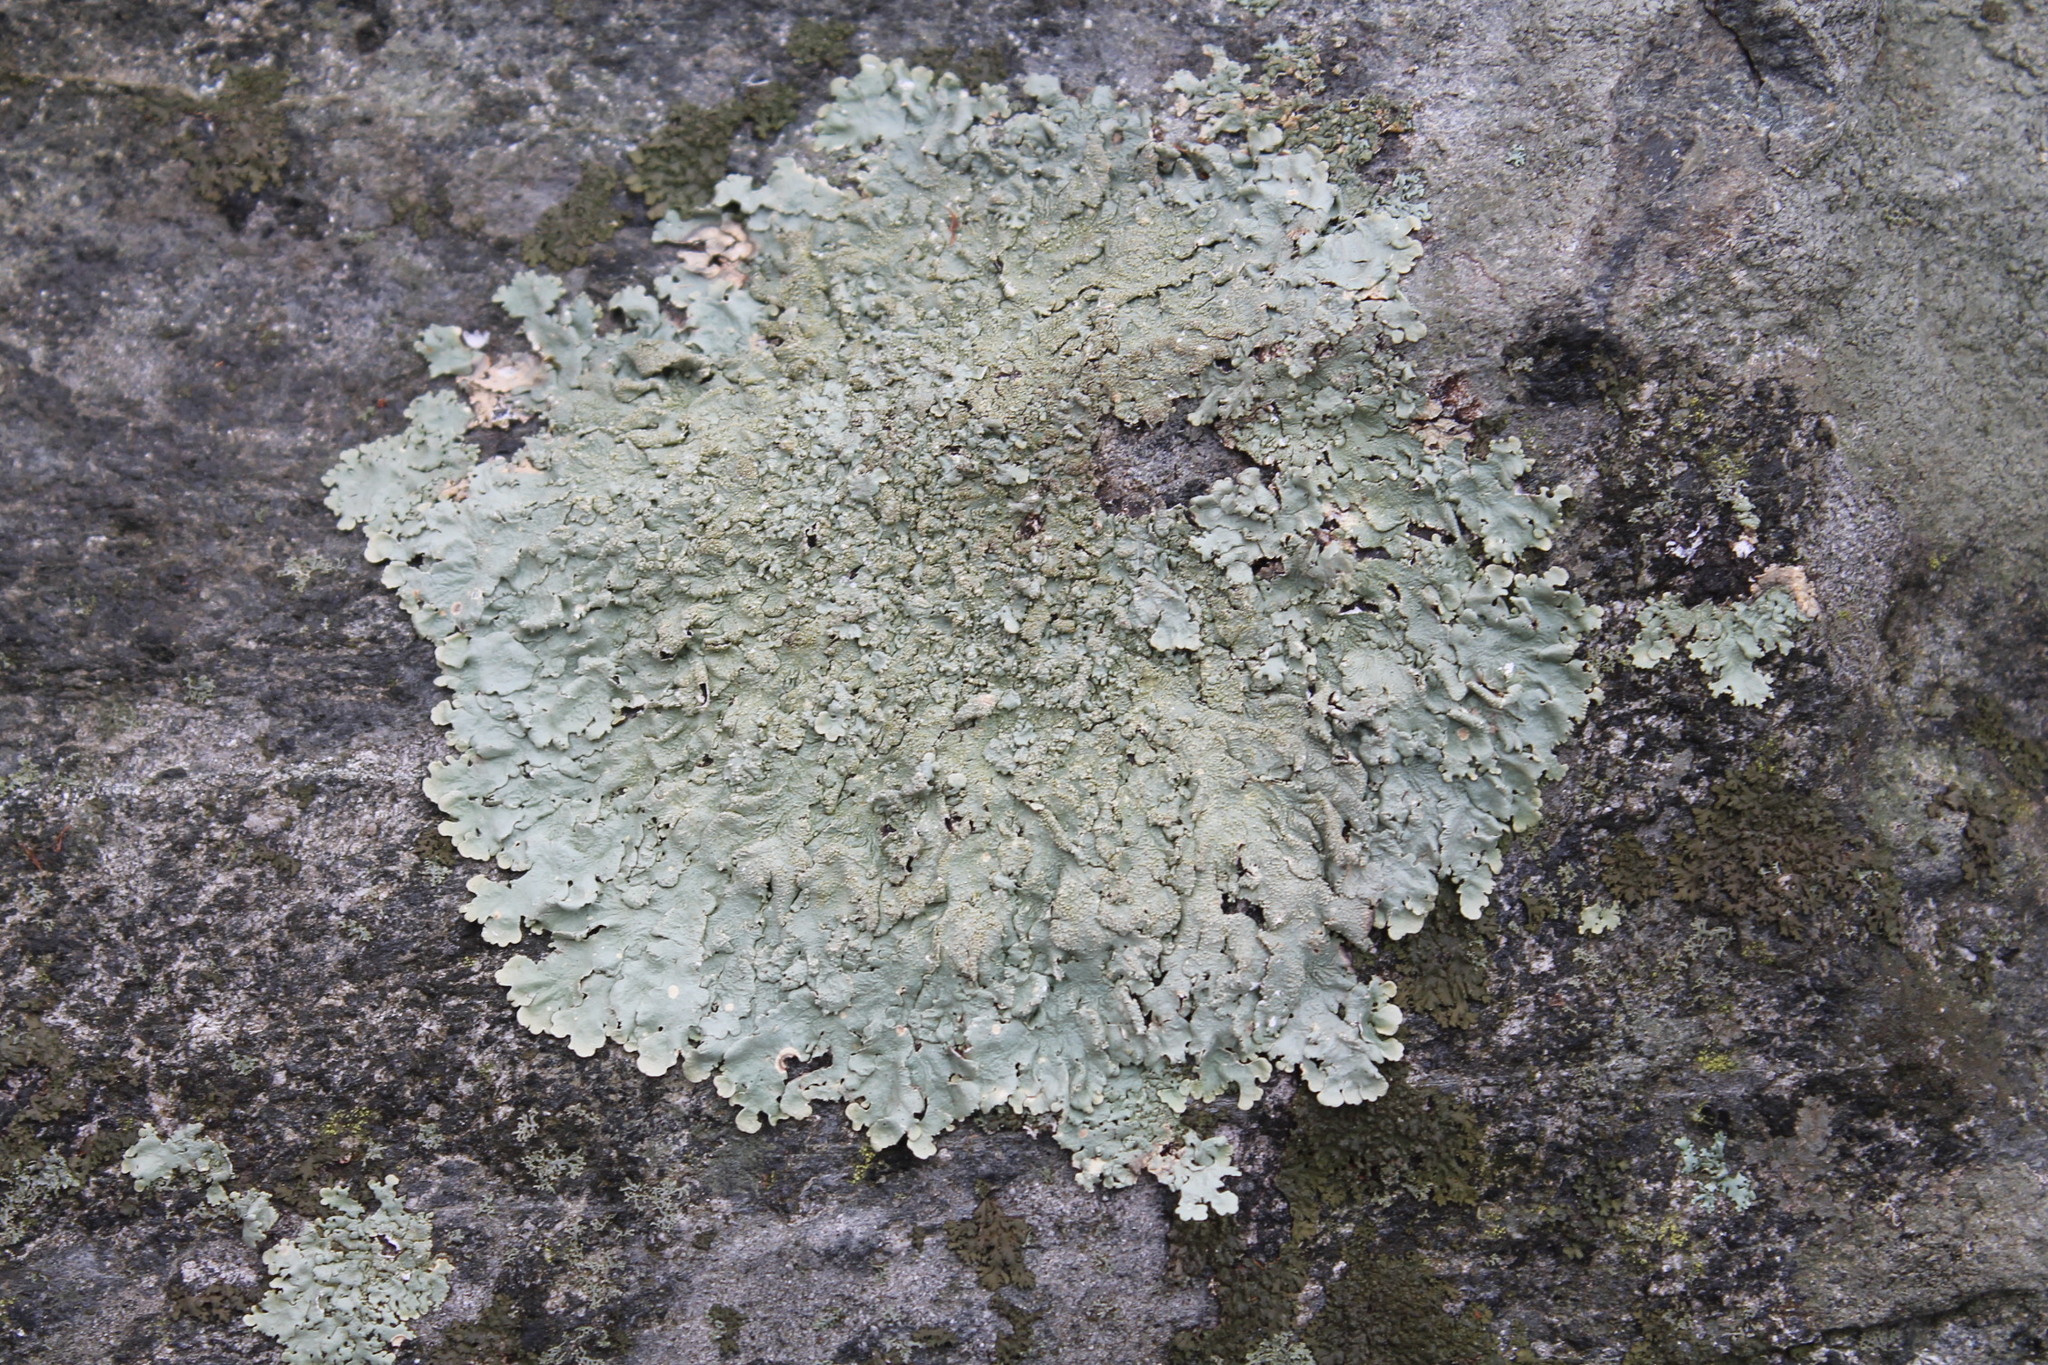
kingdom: Fungi
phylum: Ascomycota
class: Lecanoromycetes
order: Lecanorales
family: Parmeliaceae
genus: Flavoparmelia
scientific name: Flavoparmelia baltimorensis
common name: Rock greenshield
